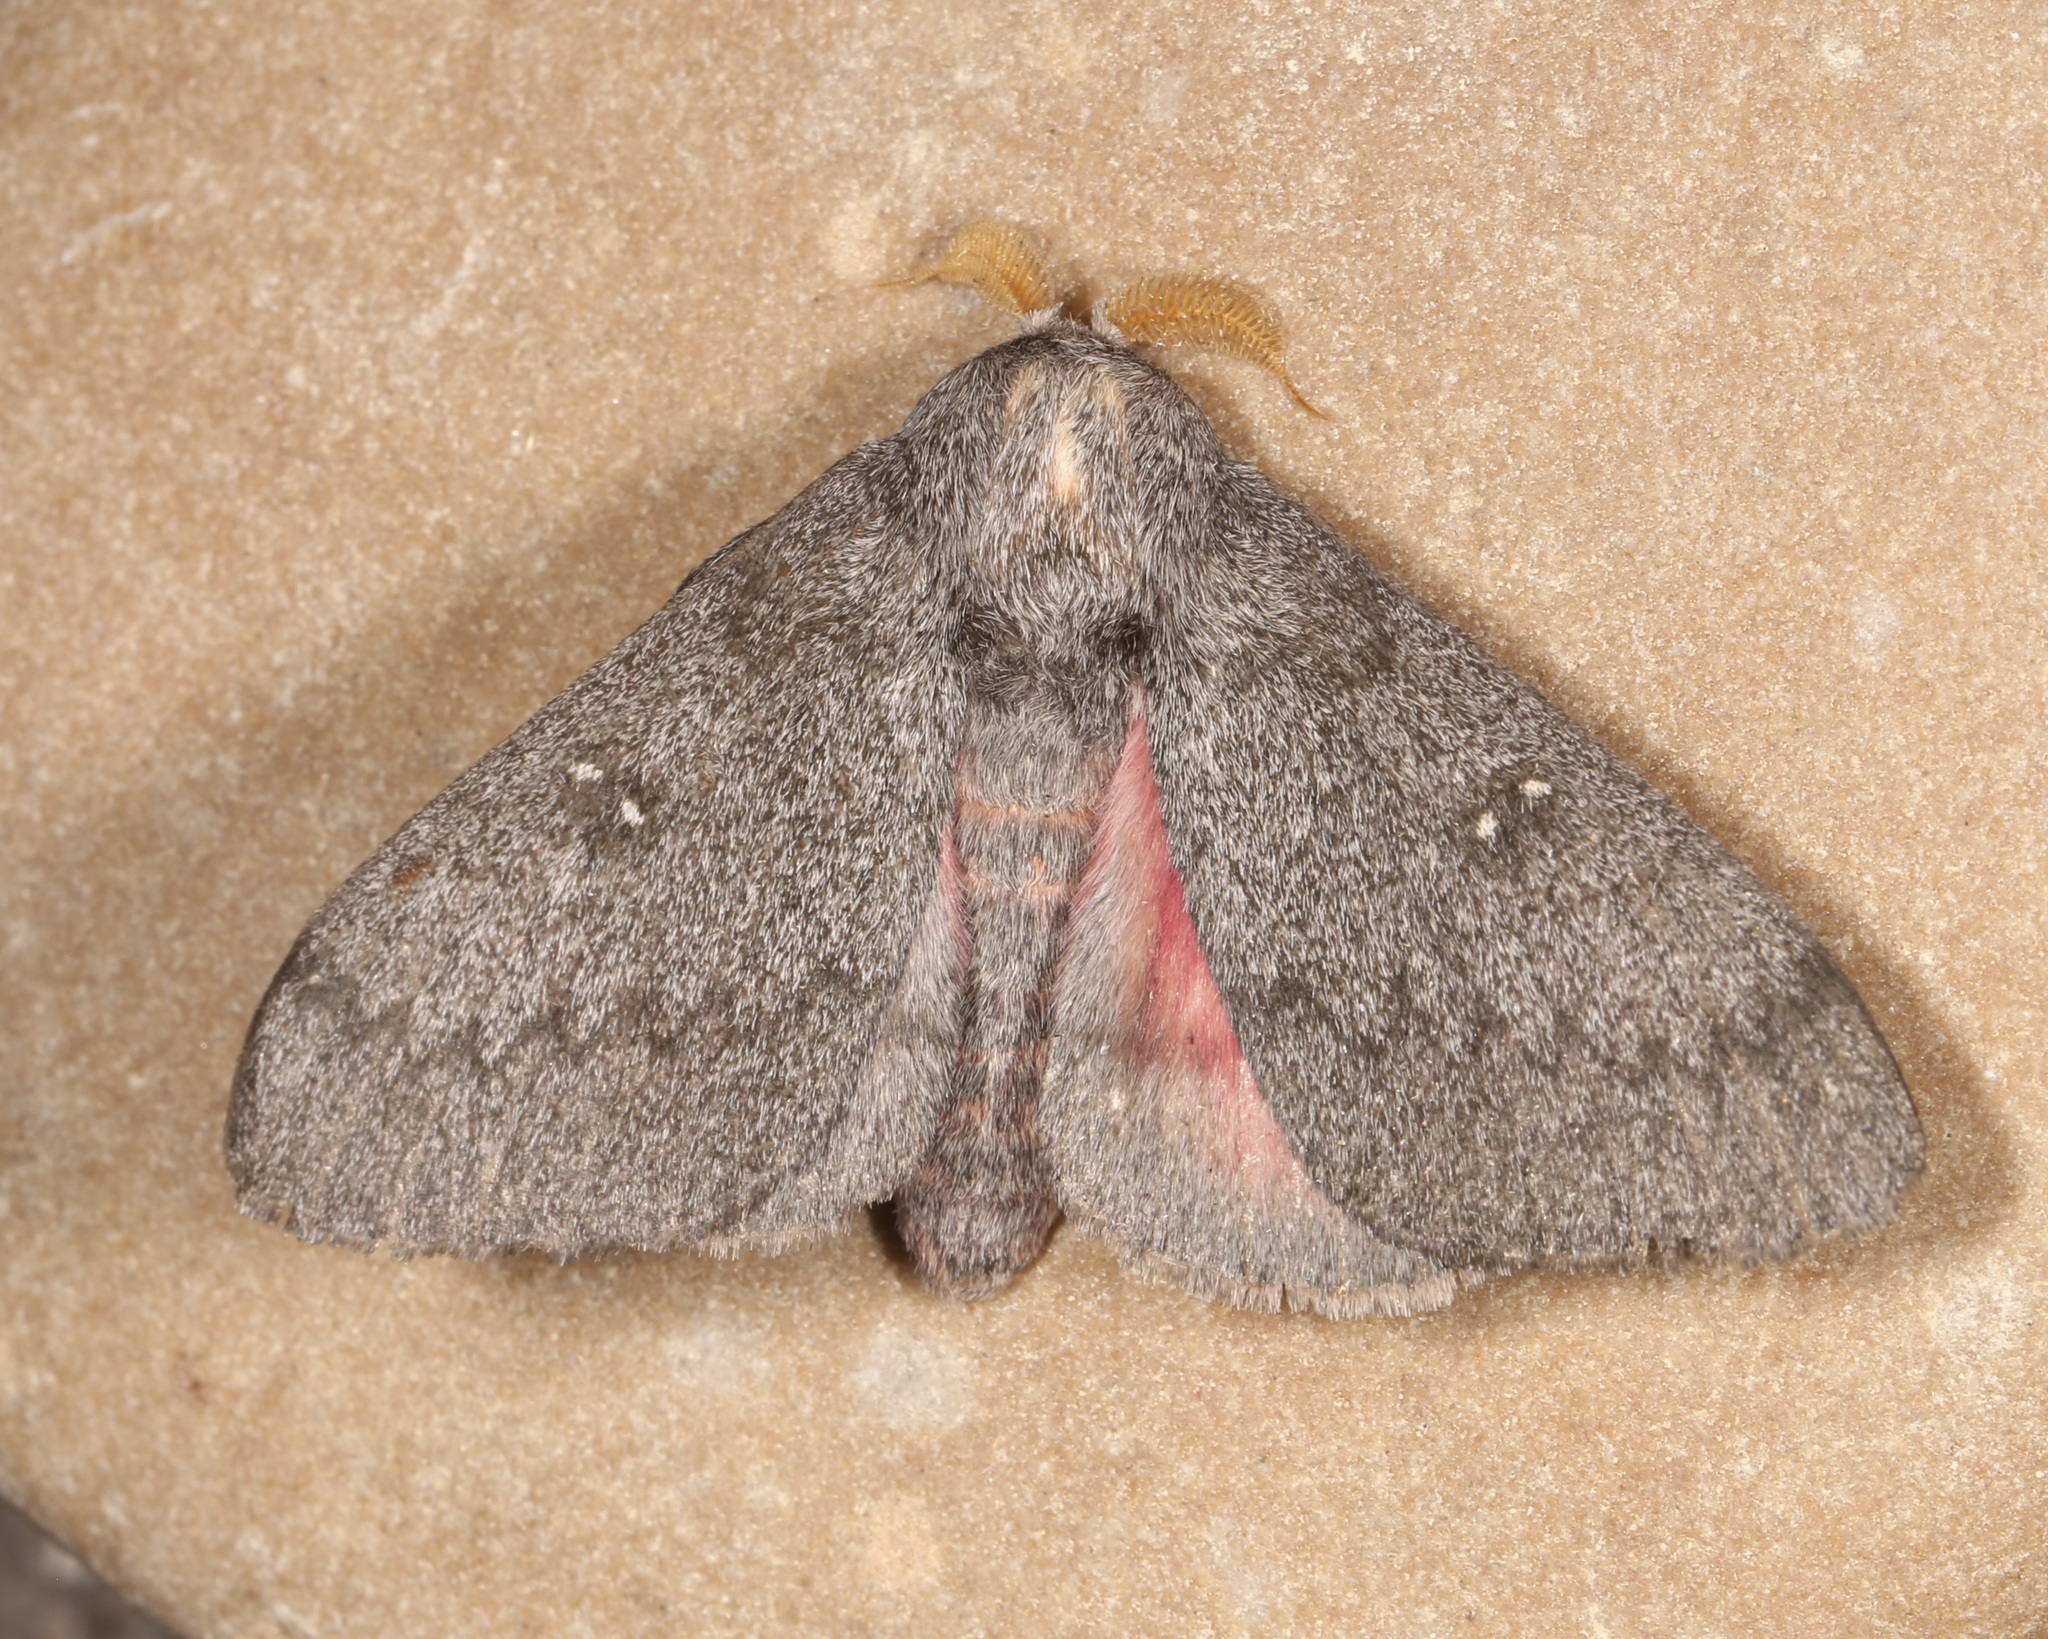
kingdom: Animalia
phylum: Arthropoda
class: Insecta
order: Lepidoptera
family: Saturniidae
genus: Syssphinx
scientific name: Syssphinx hubbardi
